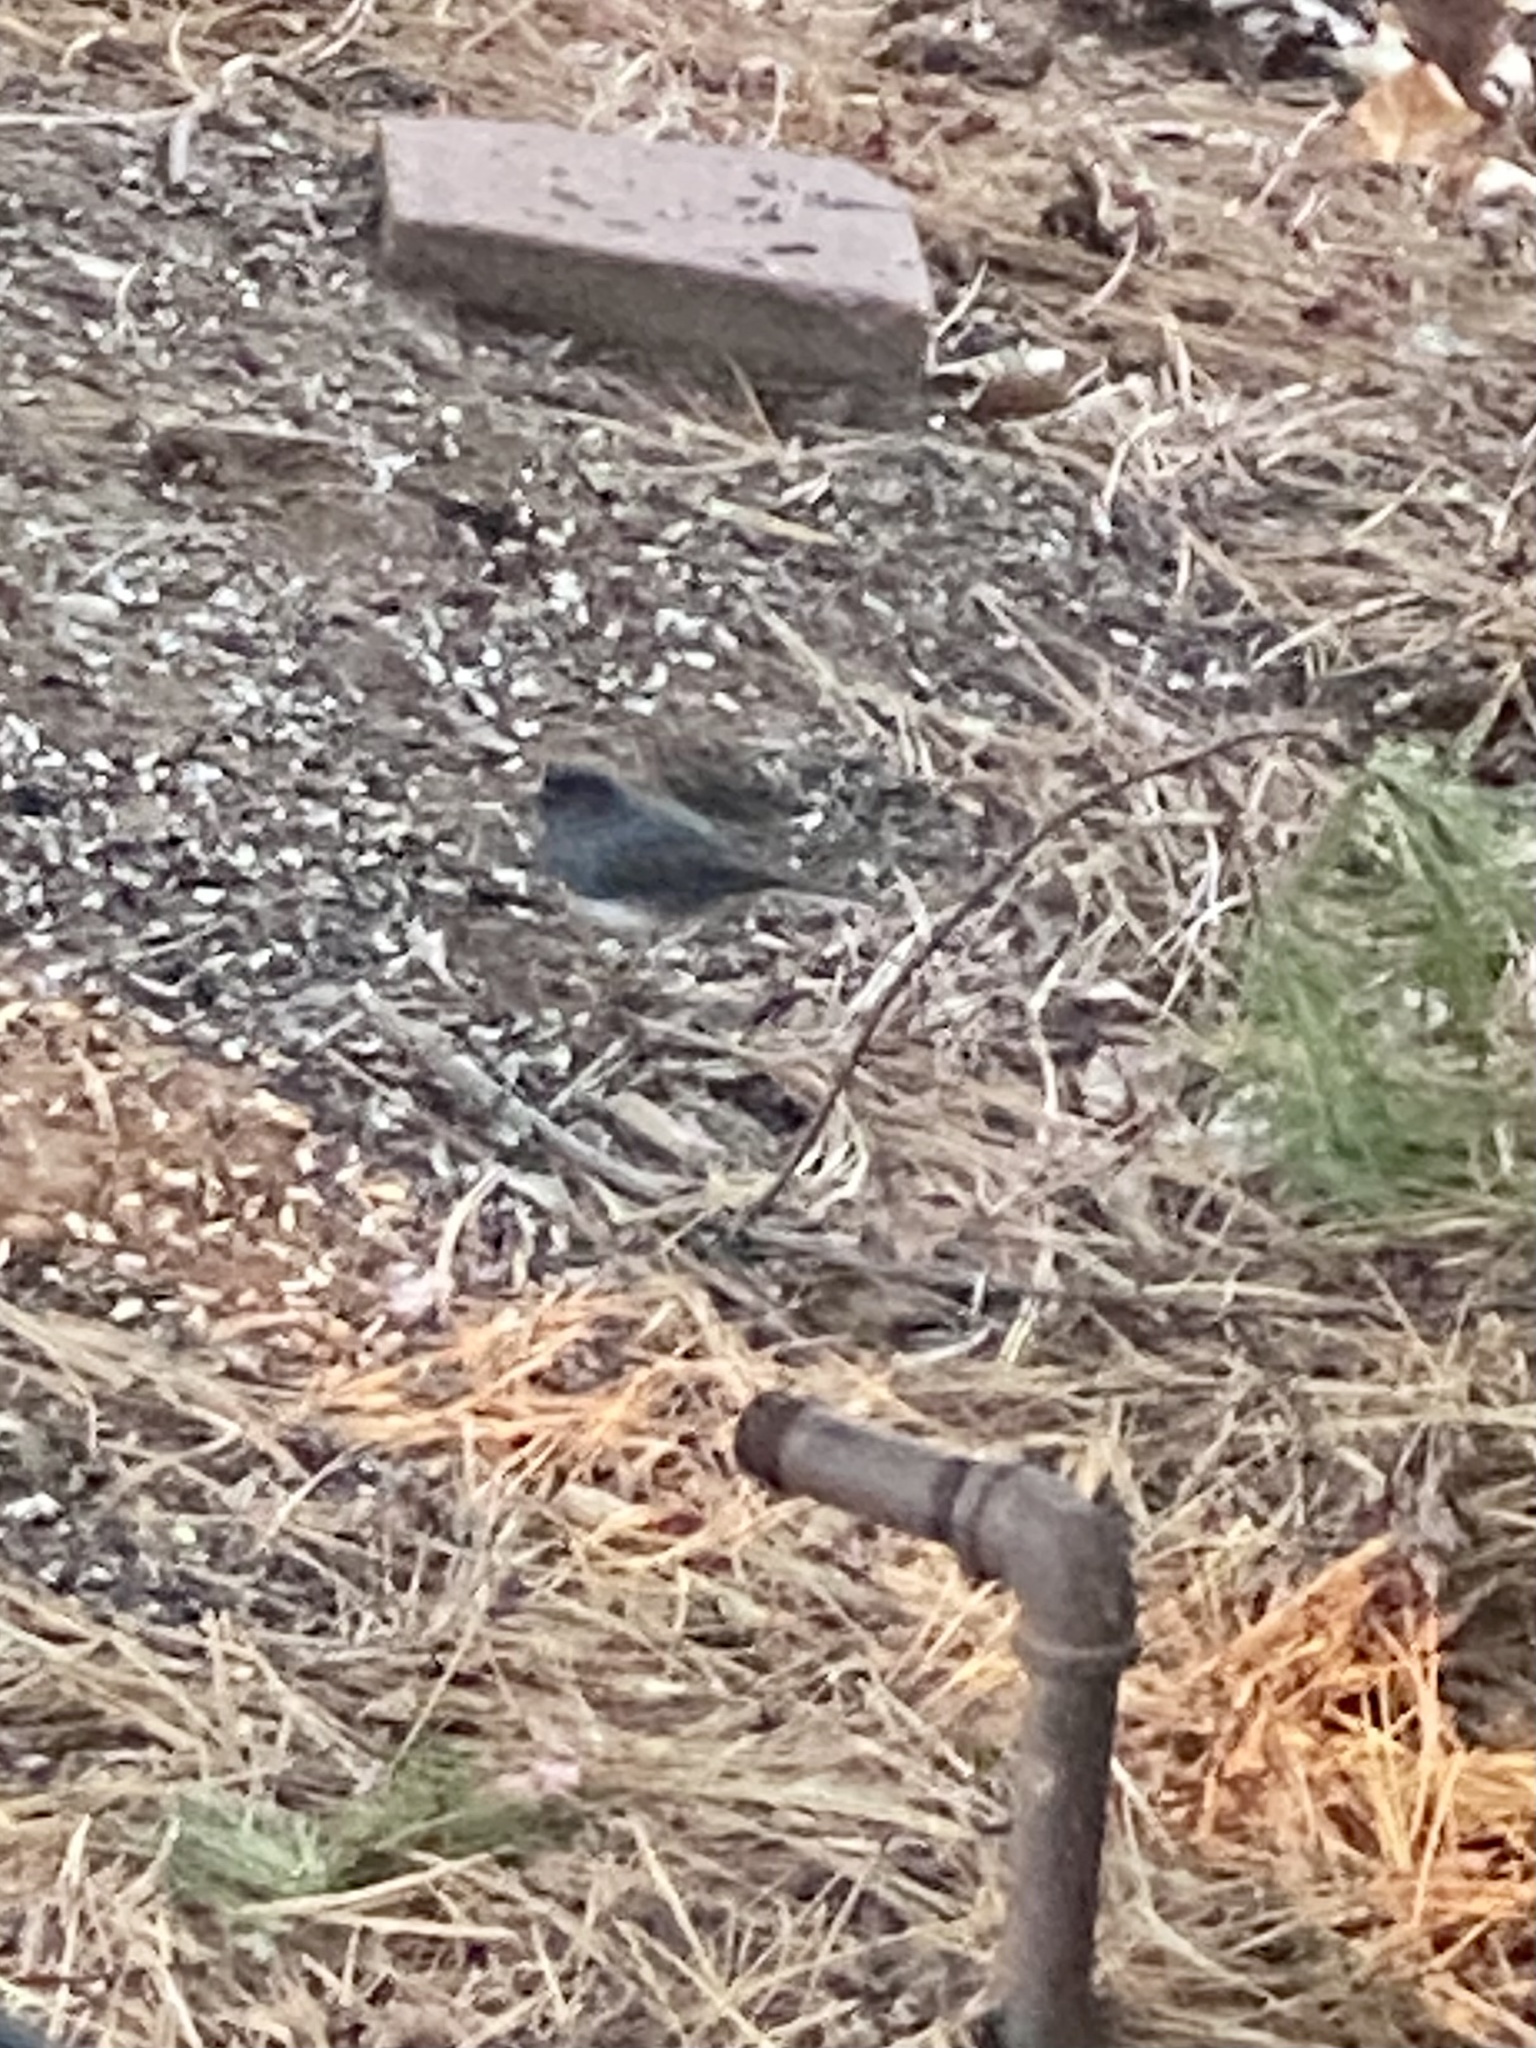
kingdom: Animalia
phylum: Chordata
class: Aves
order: Passeriformes
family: Passerellidae
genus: Junco
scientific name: Junco hyemalis
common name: Dark-eyed junco
